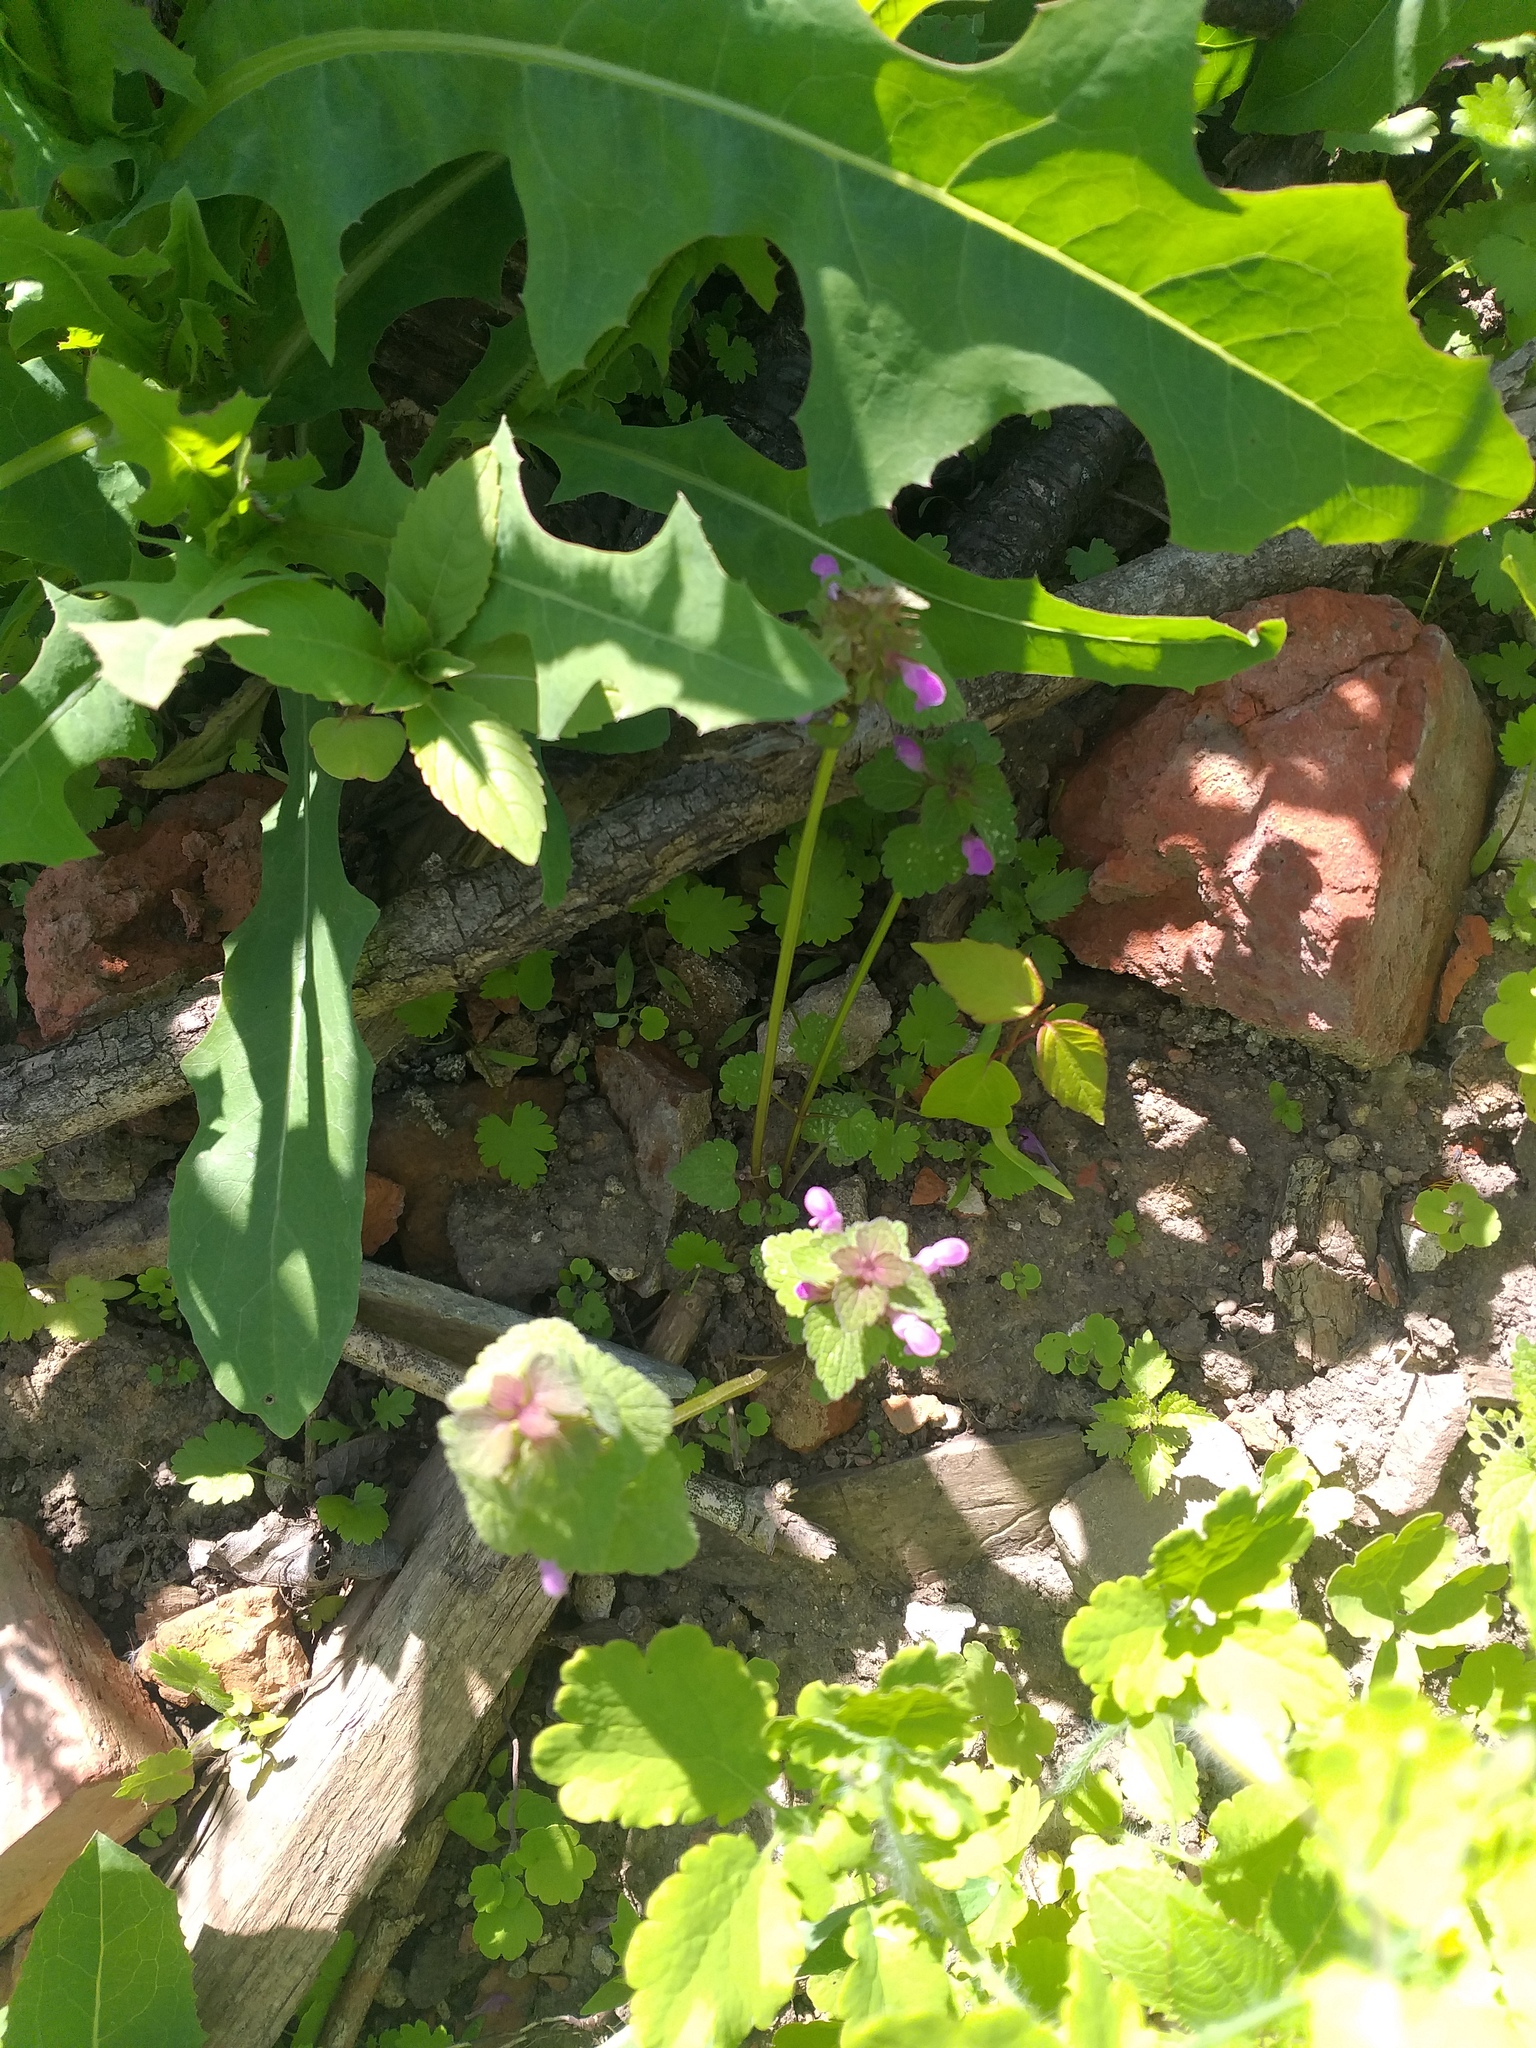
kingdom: Plantae
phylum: Tracheophyta
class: Magnoliopsida
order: Lamiales
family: Lamiaceae
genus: Lamium
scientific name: Lamium purpureum
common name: Red dead-nettle
